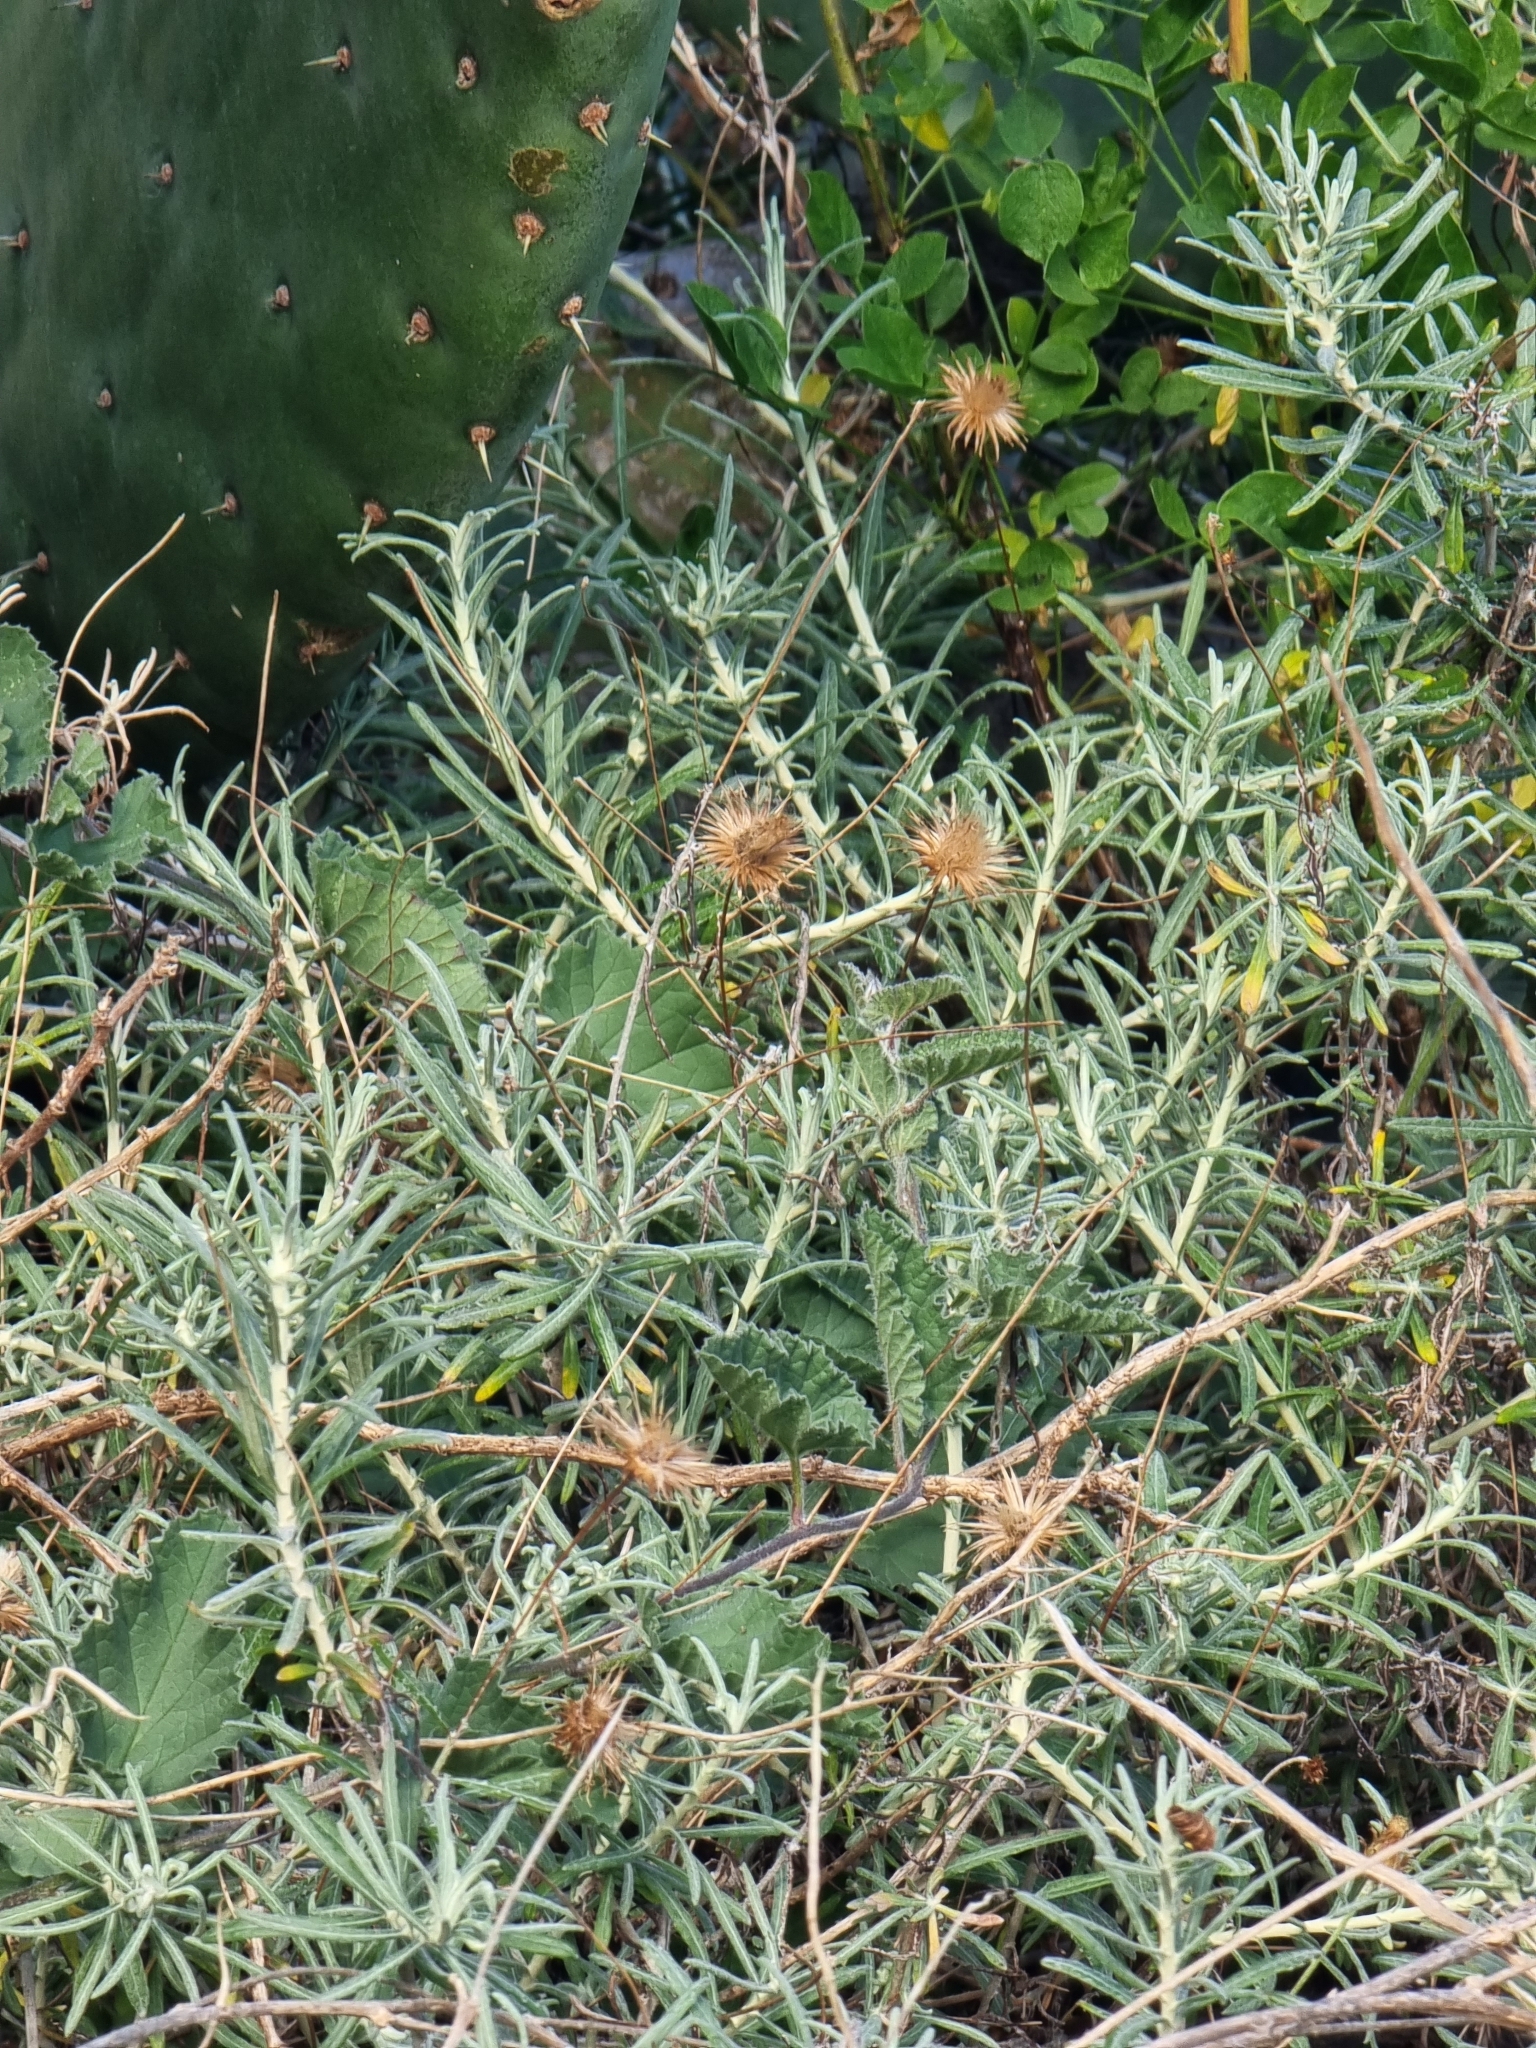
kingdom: Plantae
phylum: Tracheophyta
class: Magnoliopsida
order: Asterales
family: Asteraceae
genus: Phagnalon
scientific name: Phagnalon saxatile
